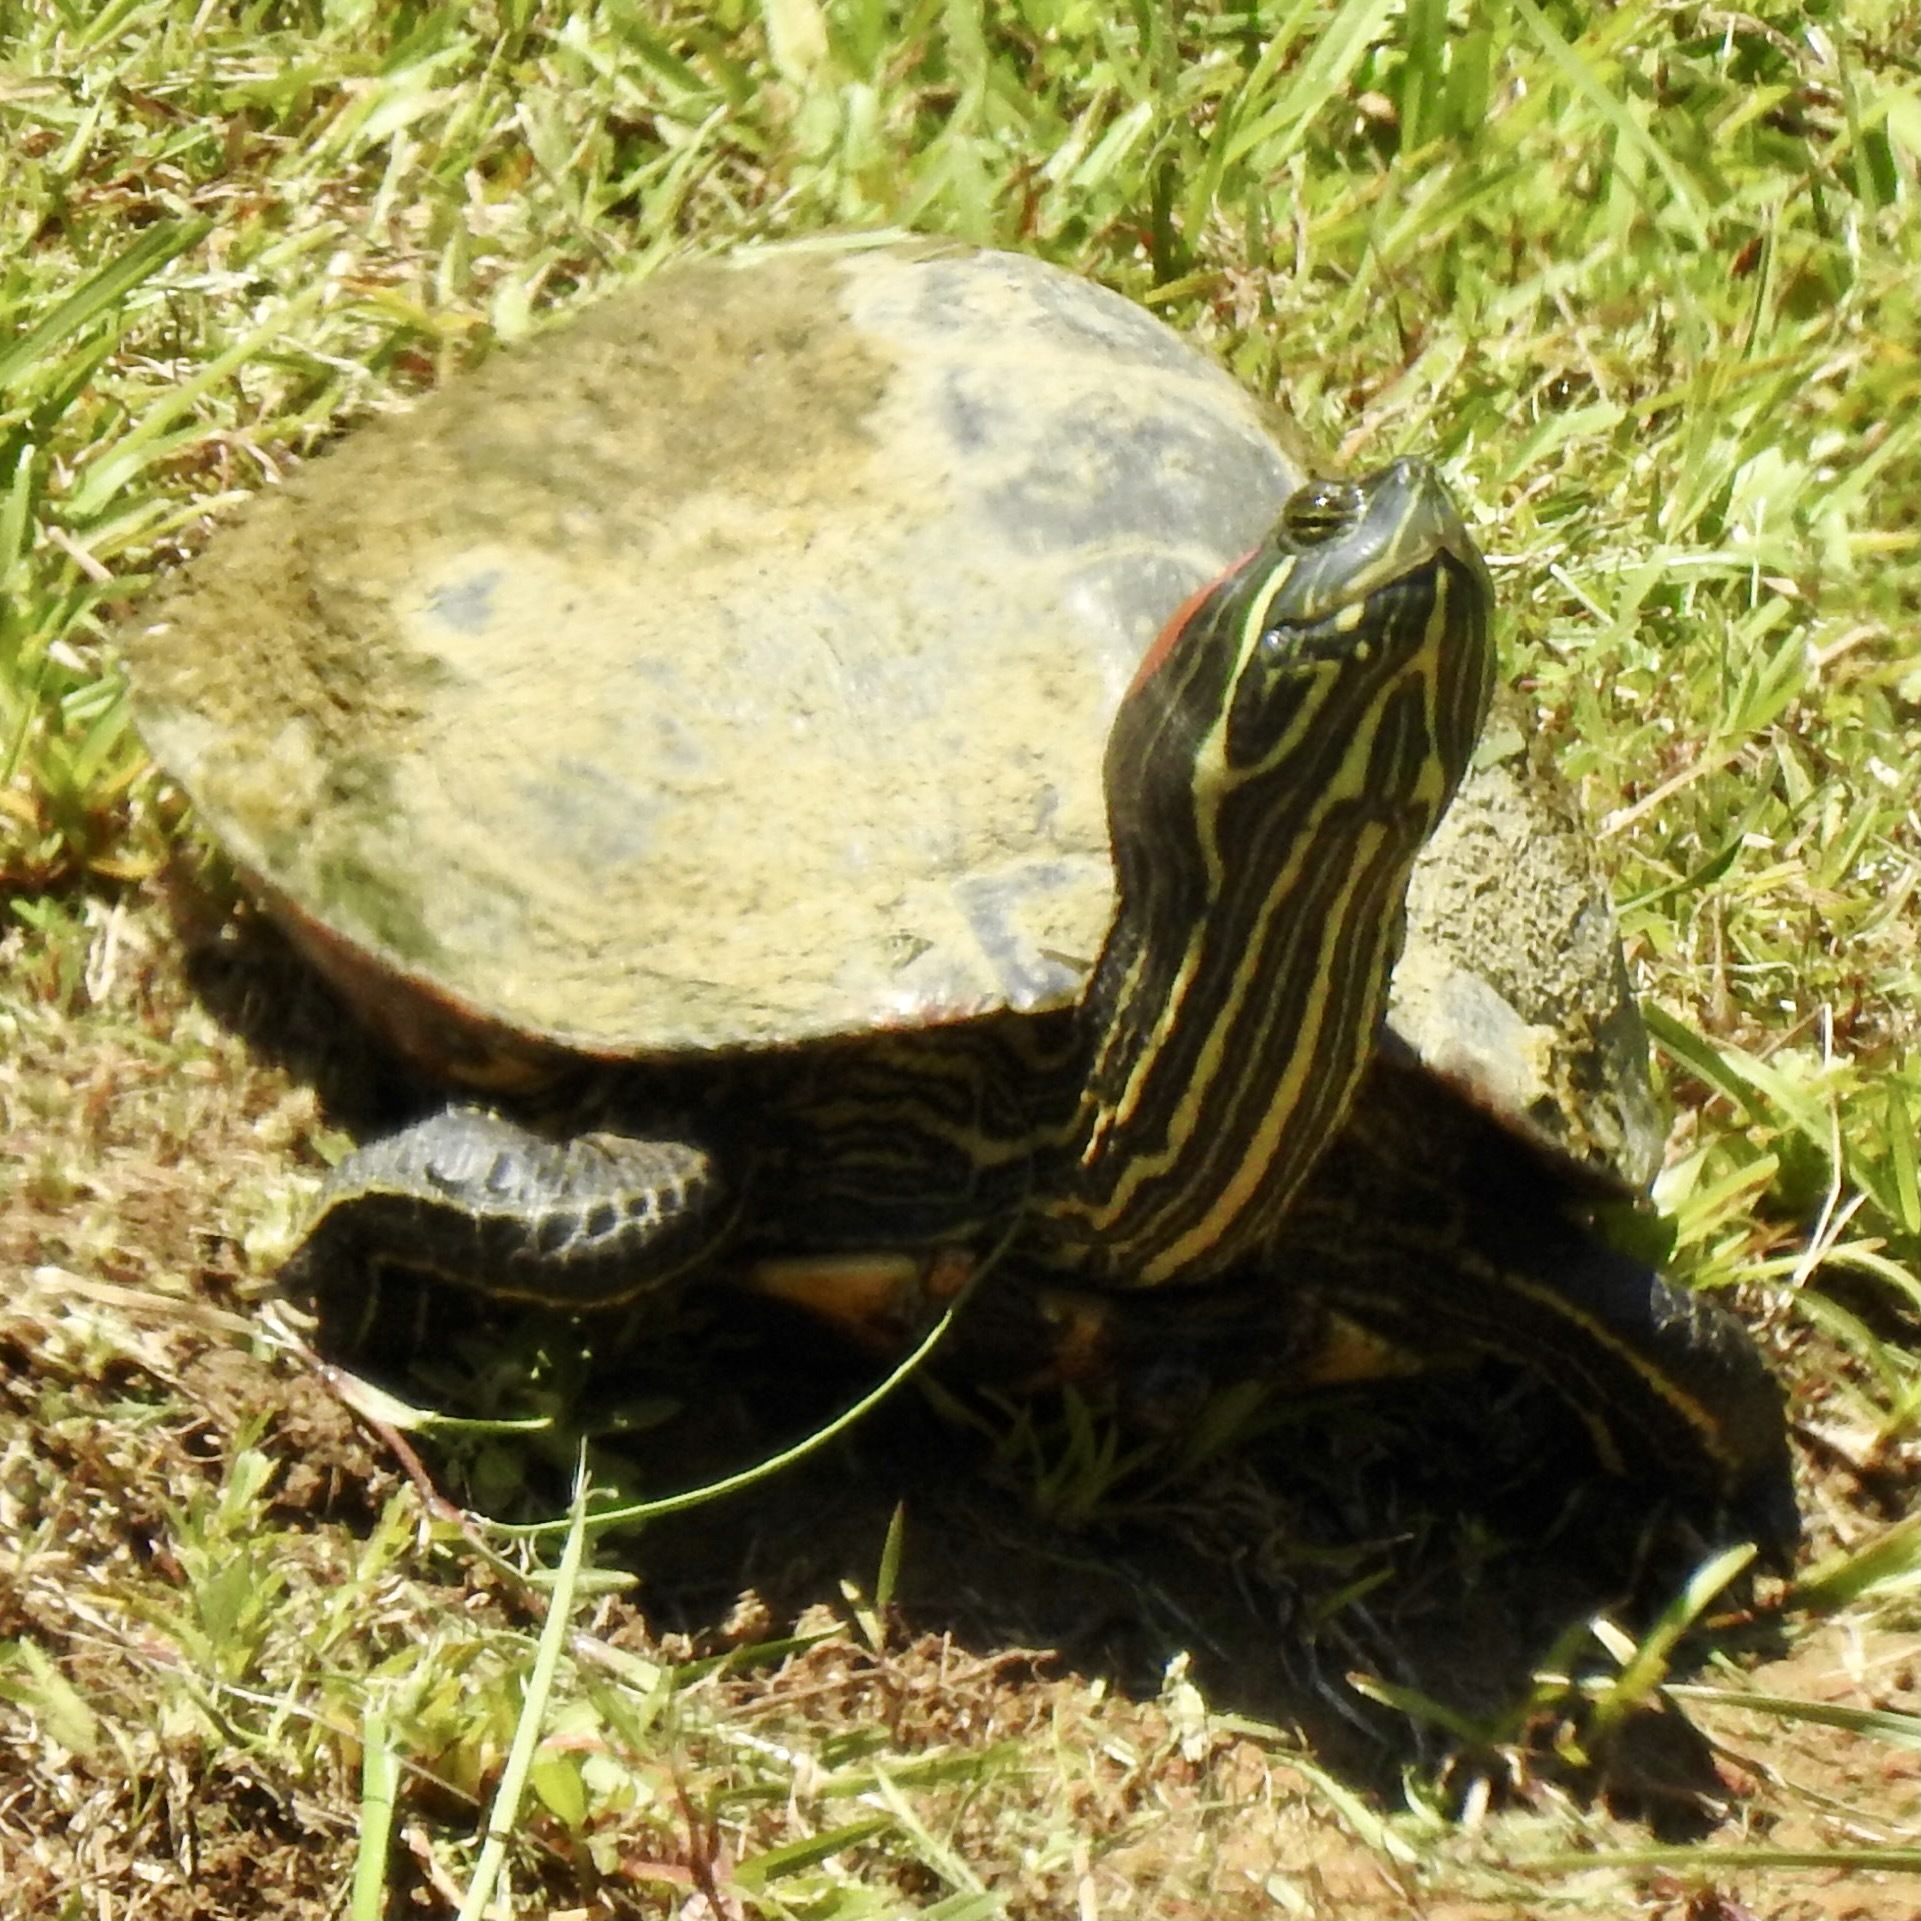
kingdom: Animalia
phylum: Chordata
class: Testudines
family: Emydidae
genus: Trachemys
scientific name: Trachemys scripta
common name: Slider
